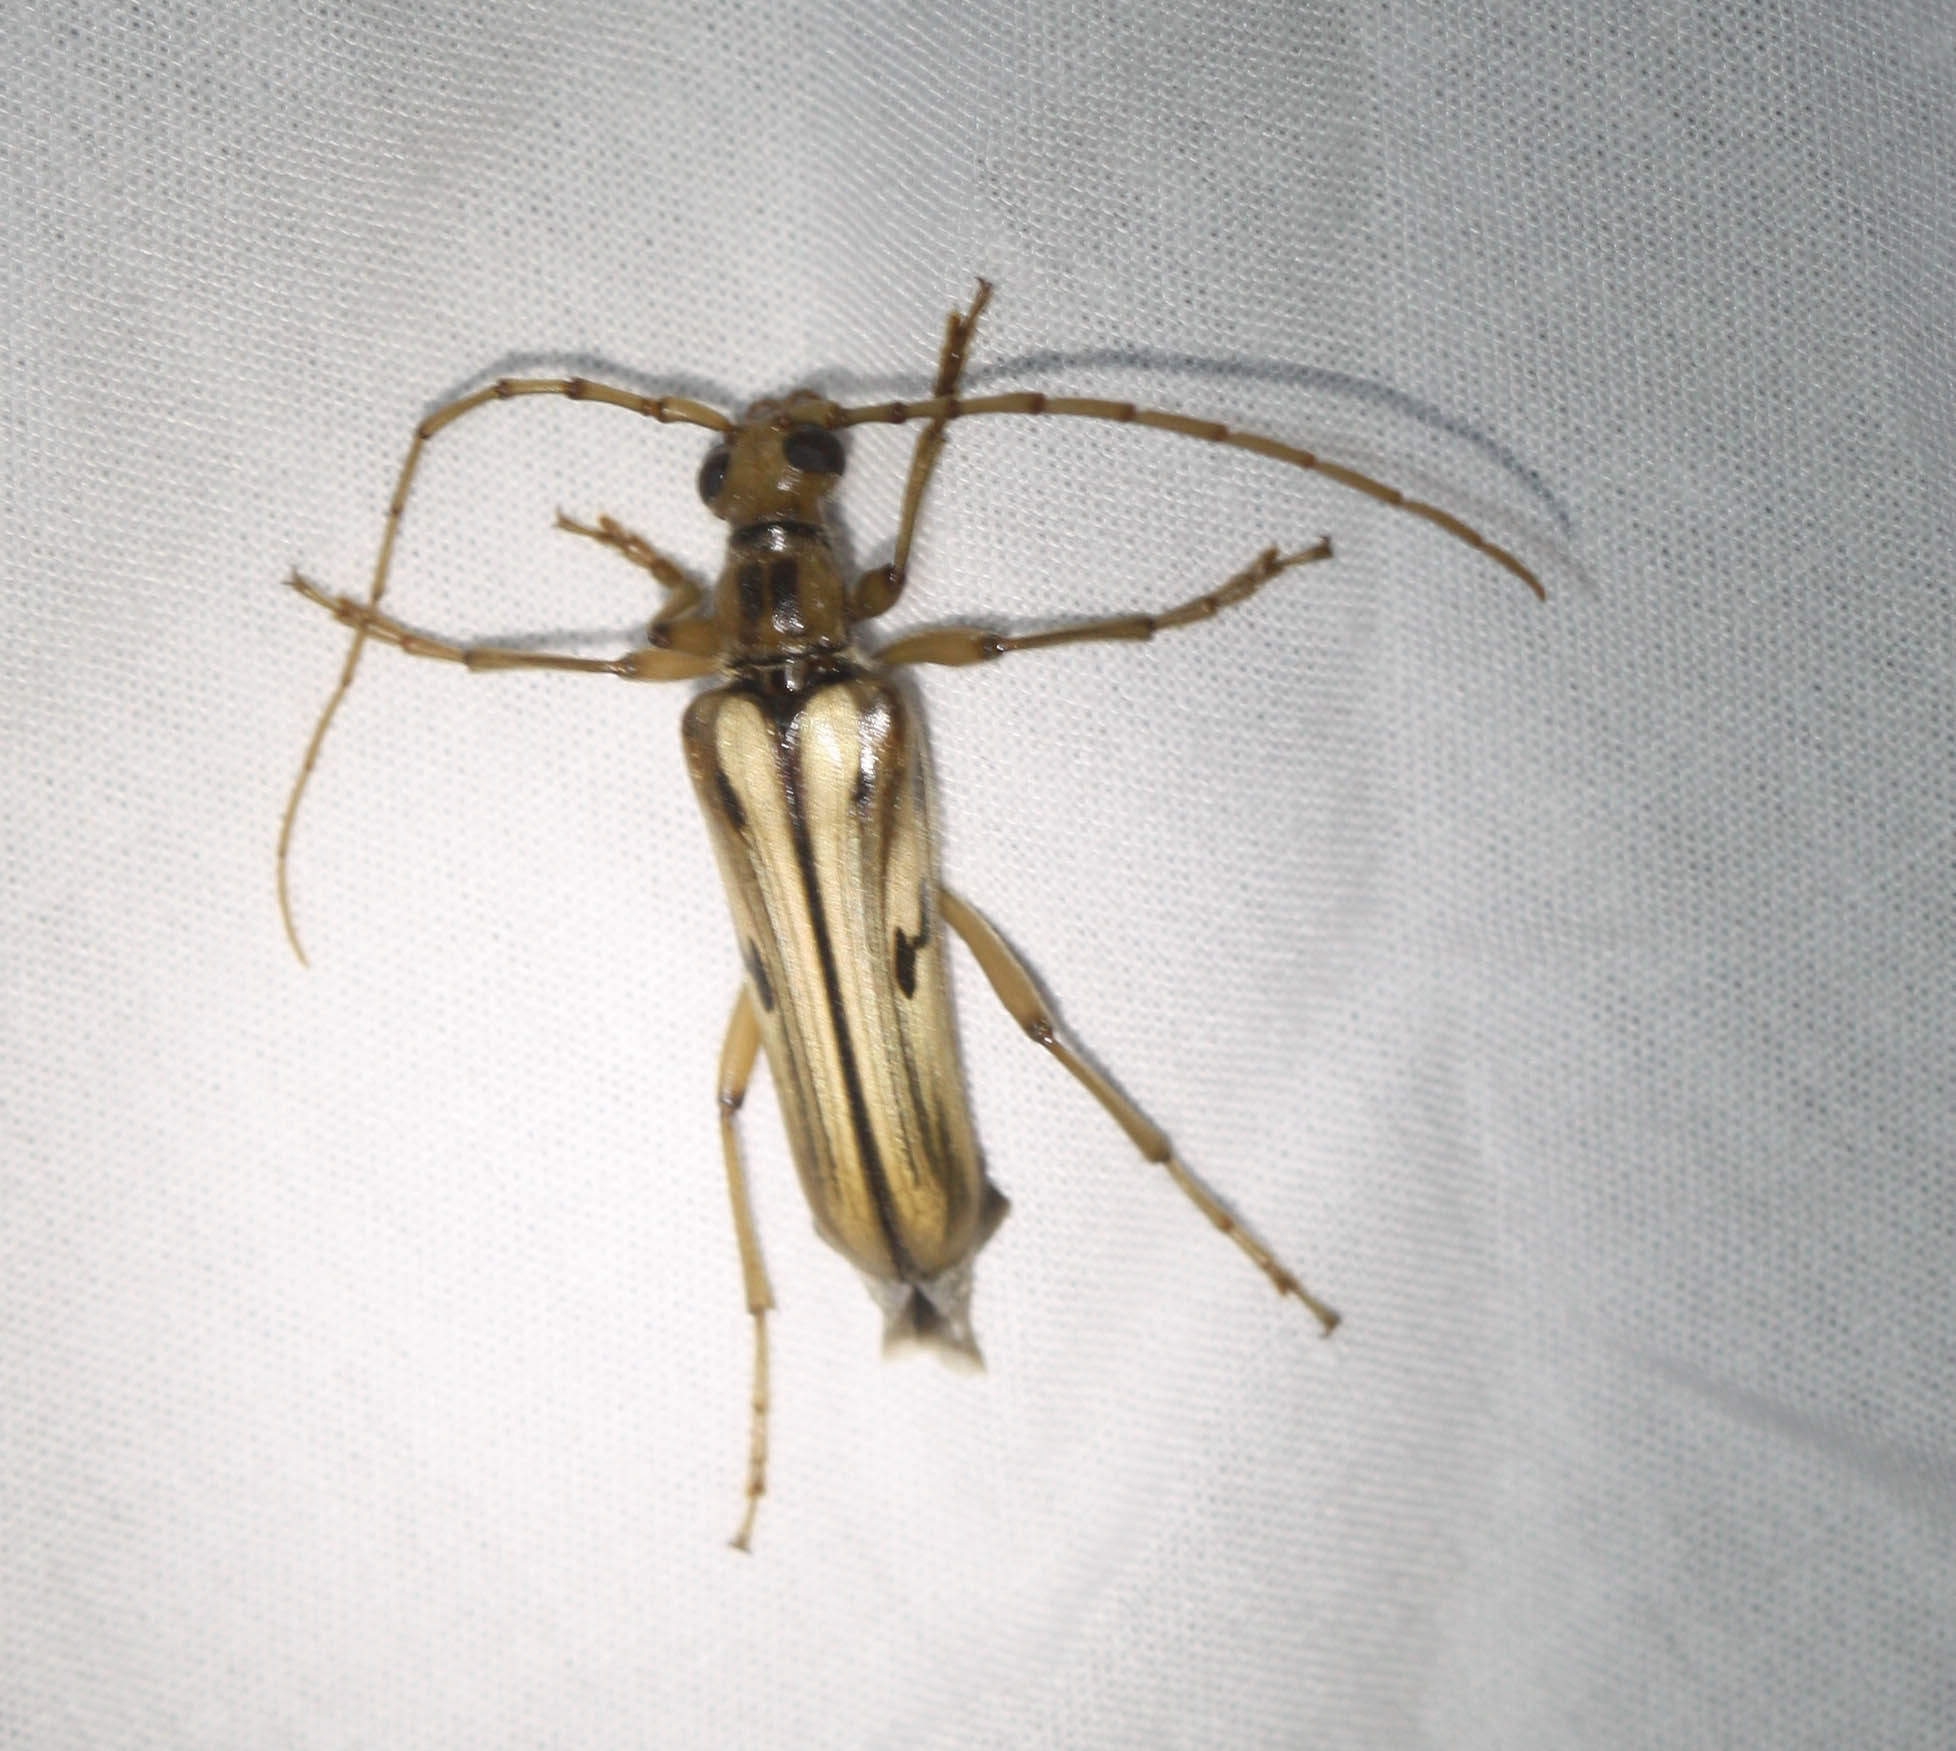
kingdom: Animalia
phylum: Arthropoda
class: Insecta
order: Coleoptera
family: Cerambycidae
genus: Ortholeptura
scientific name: Ortholeptura valida
